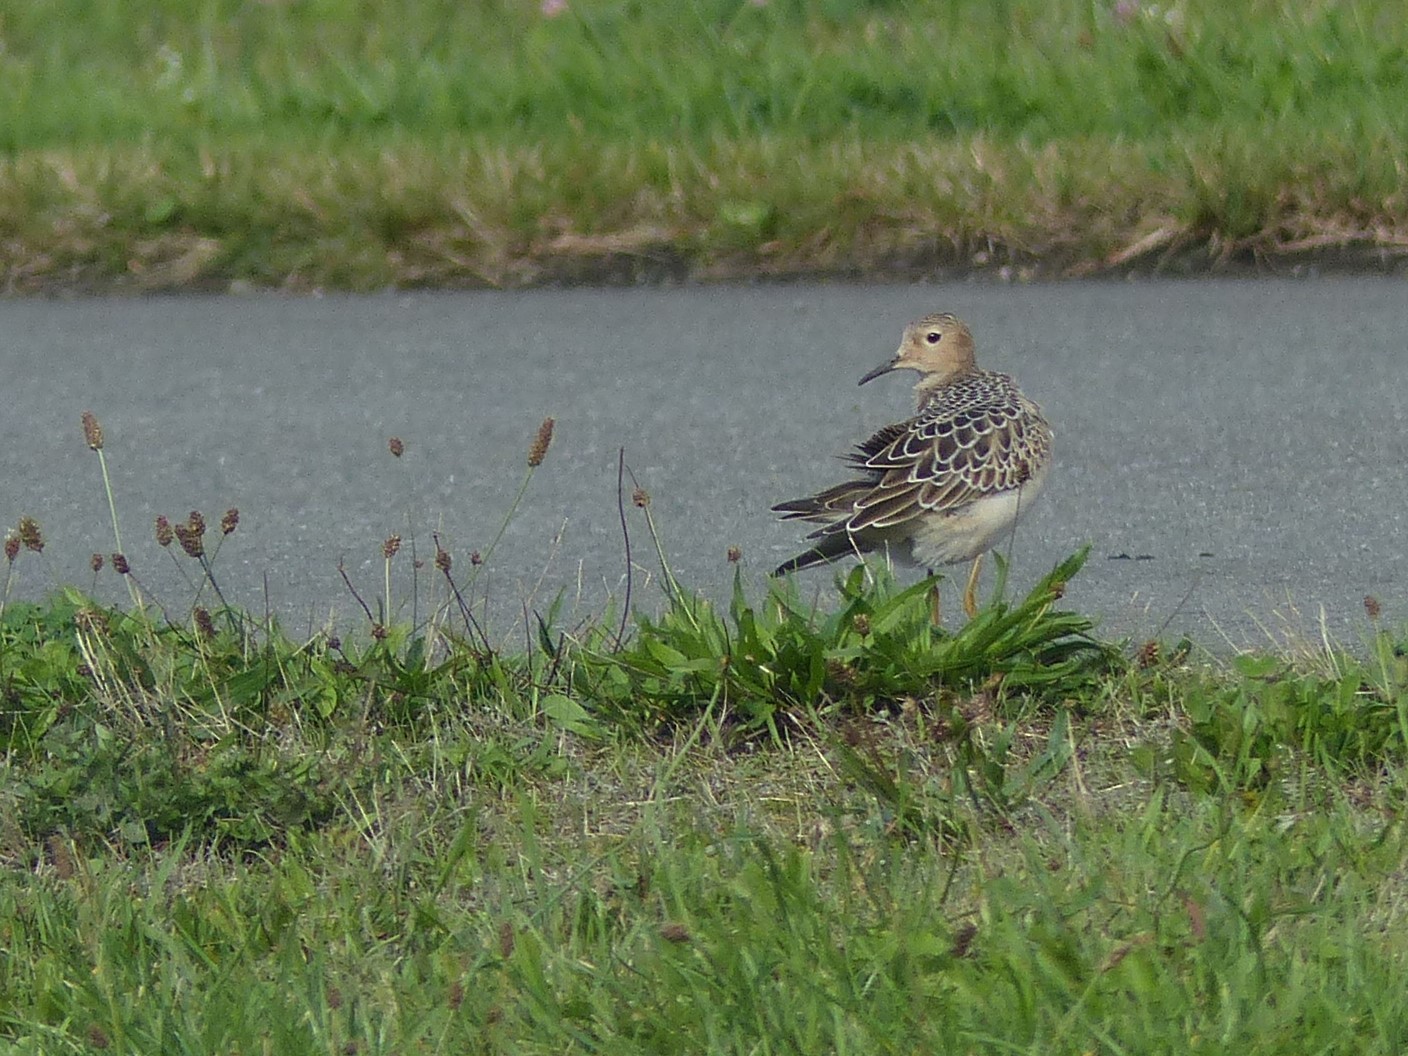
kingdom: Animalia
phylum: Chordata
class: Aves
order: Charadriiformes
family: Scolopacidae
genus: Calidris
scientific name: Calidris subruficollis
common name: Buff-breasted sandpiper
